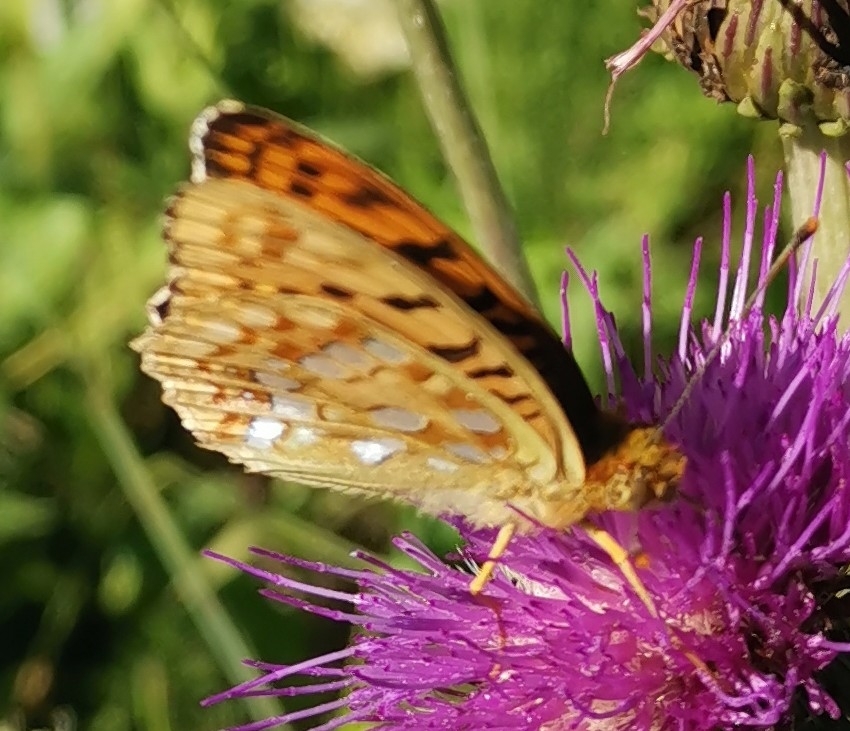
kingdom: Animalia
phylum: Arthropoda
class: Insecta
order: Lepidoptera
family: Nymphalidae
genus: Fabriciana
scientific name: Fabriciana adippe
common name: High brown fritillary
